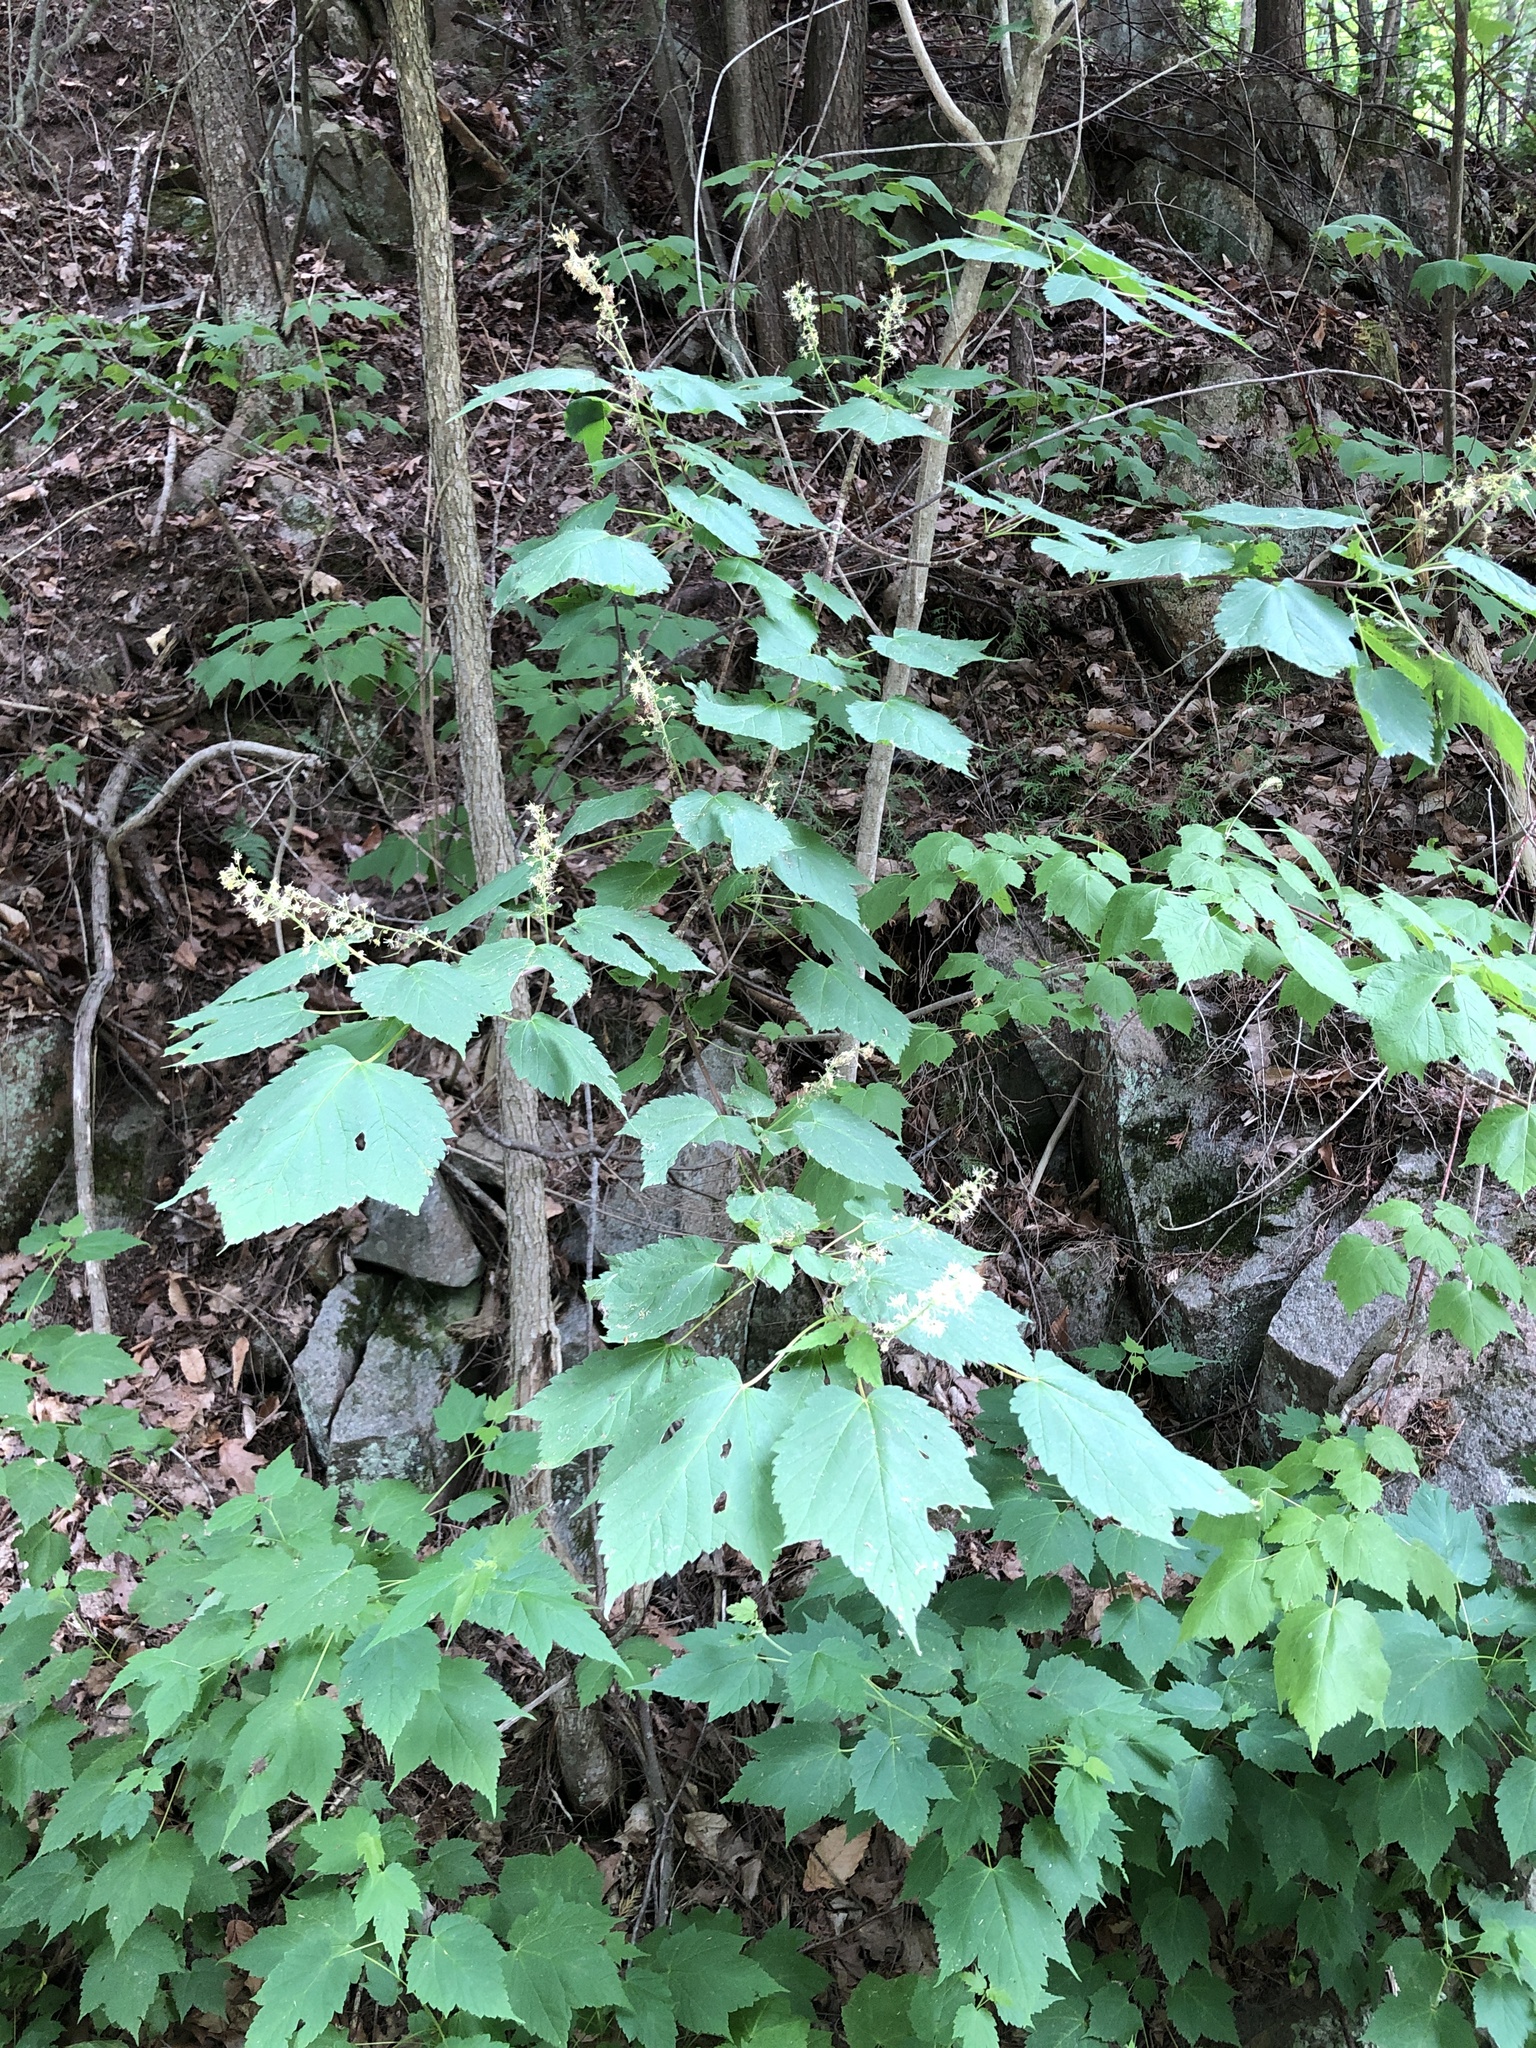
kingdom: Plantae
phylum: Tracheophyta
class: Magnoliopsida
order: Sapindales
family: Sapindaceae
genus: Acer
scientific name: Acer spicatum
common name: Mountain maple
